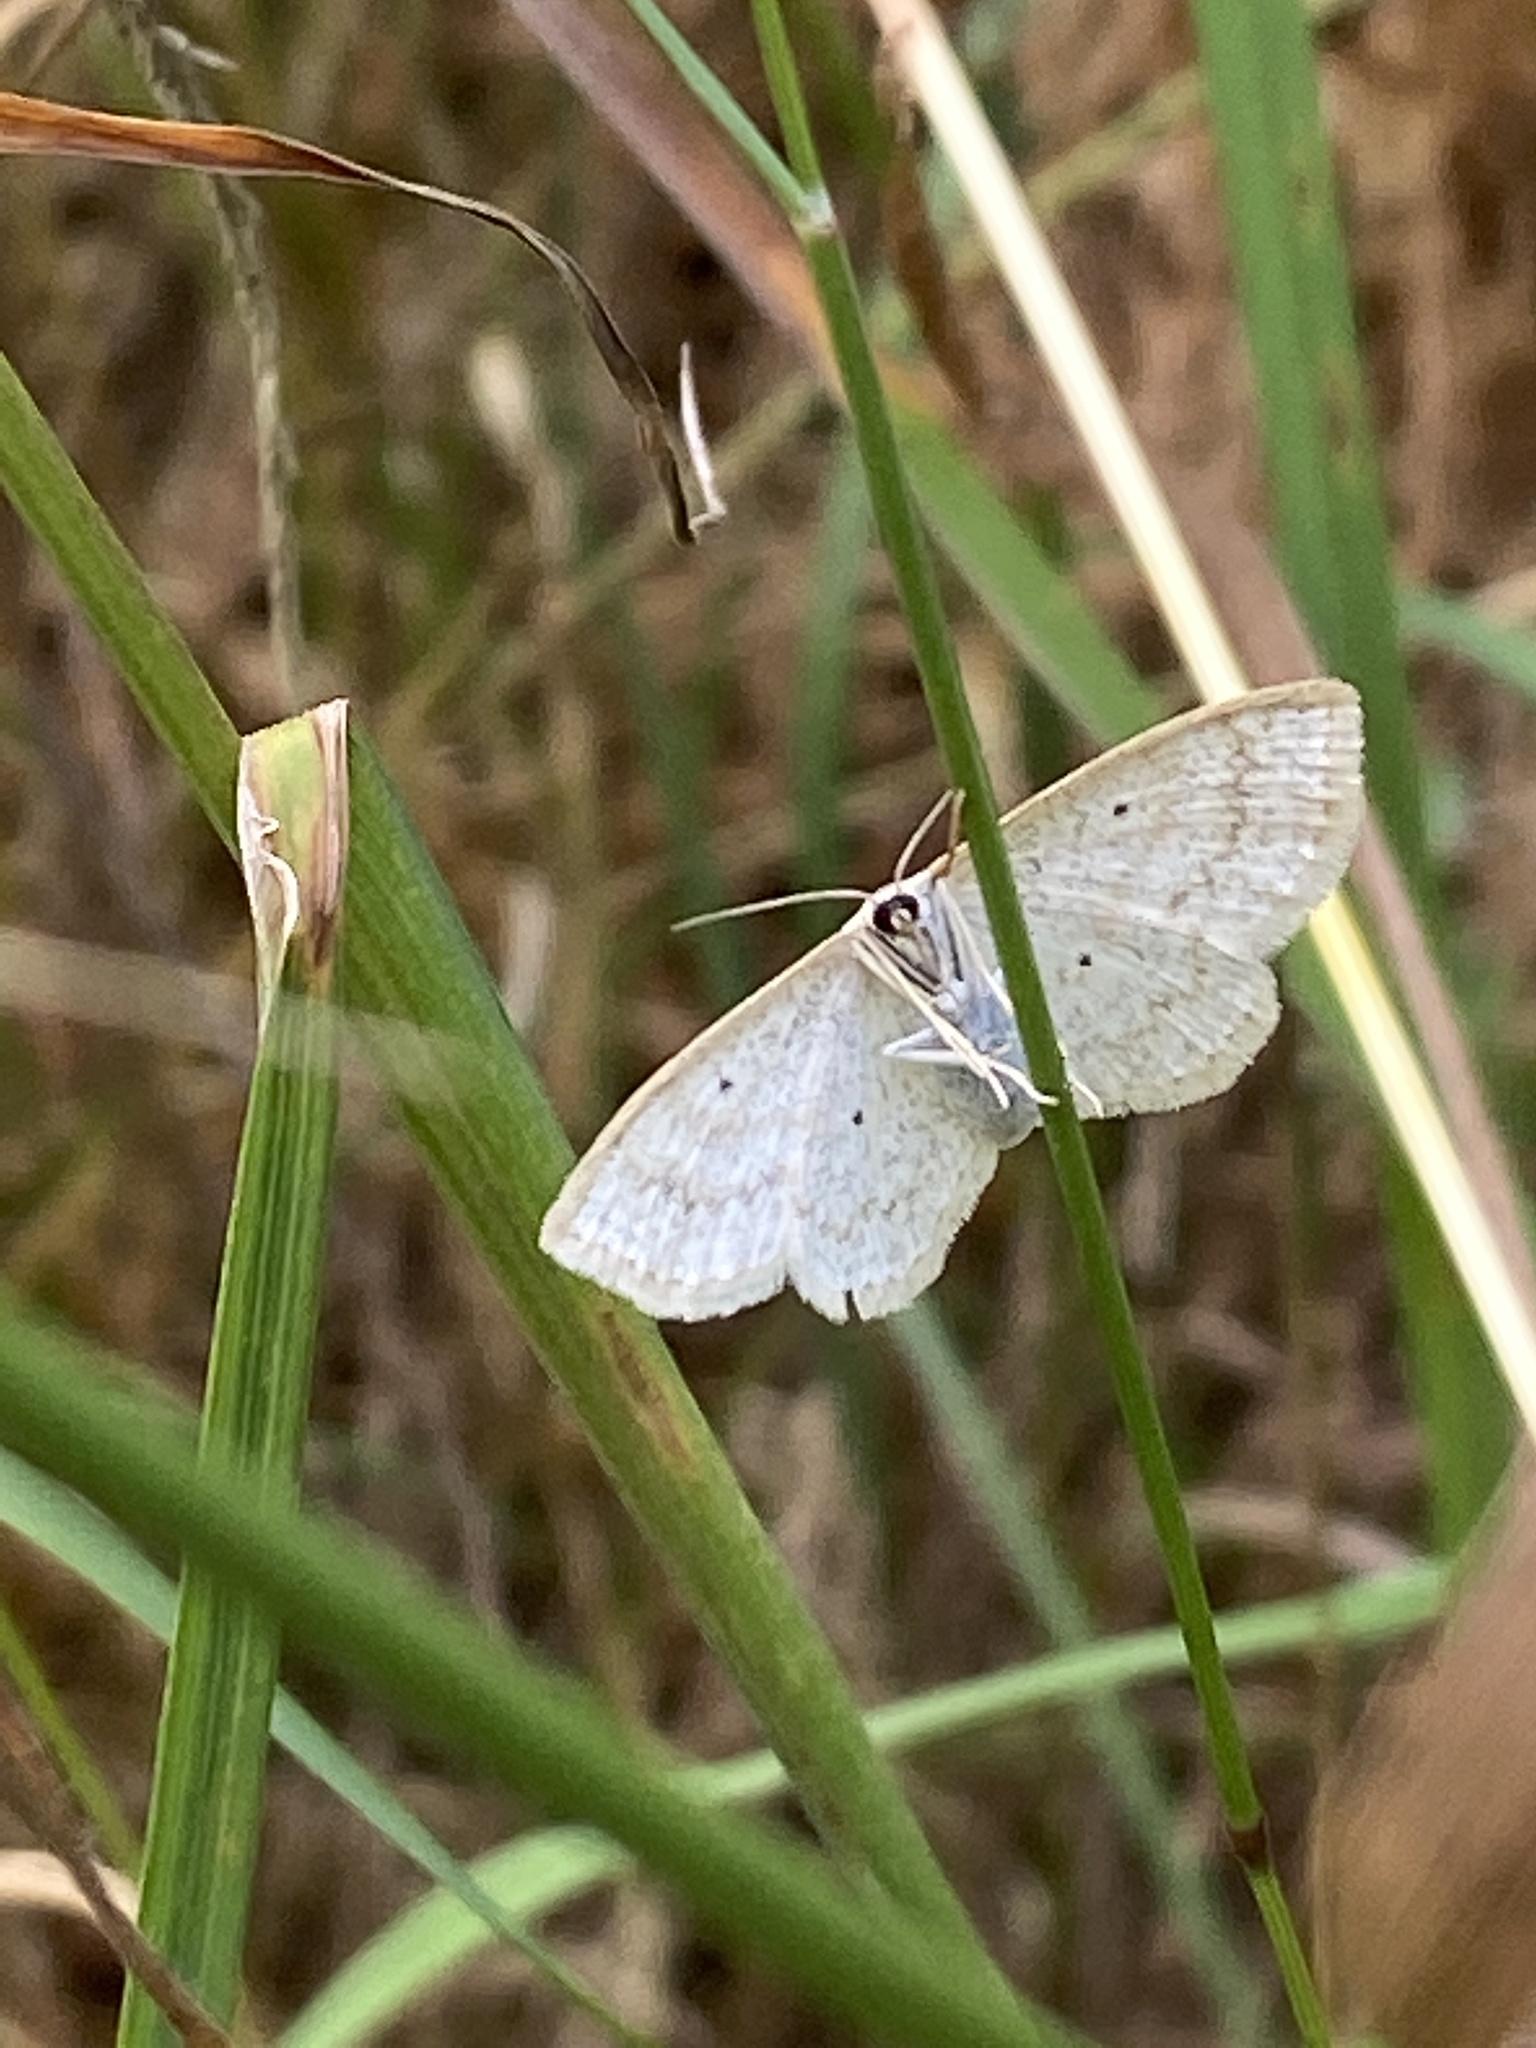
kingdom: Animalia
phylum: Arthropoda
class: Insecta
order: Lepidoptera
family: Geometridae
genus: Scopula
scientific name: Scopula immutata
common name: Lesser cream wave
